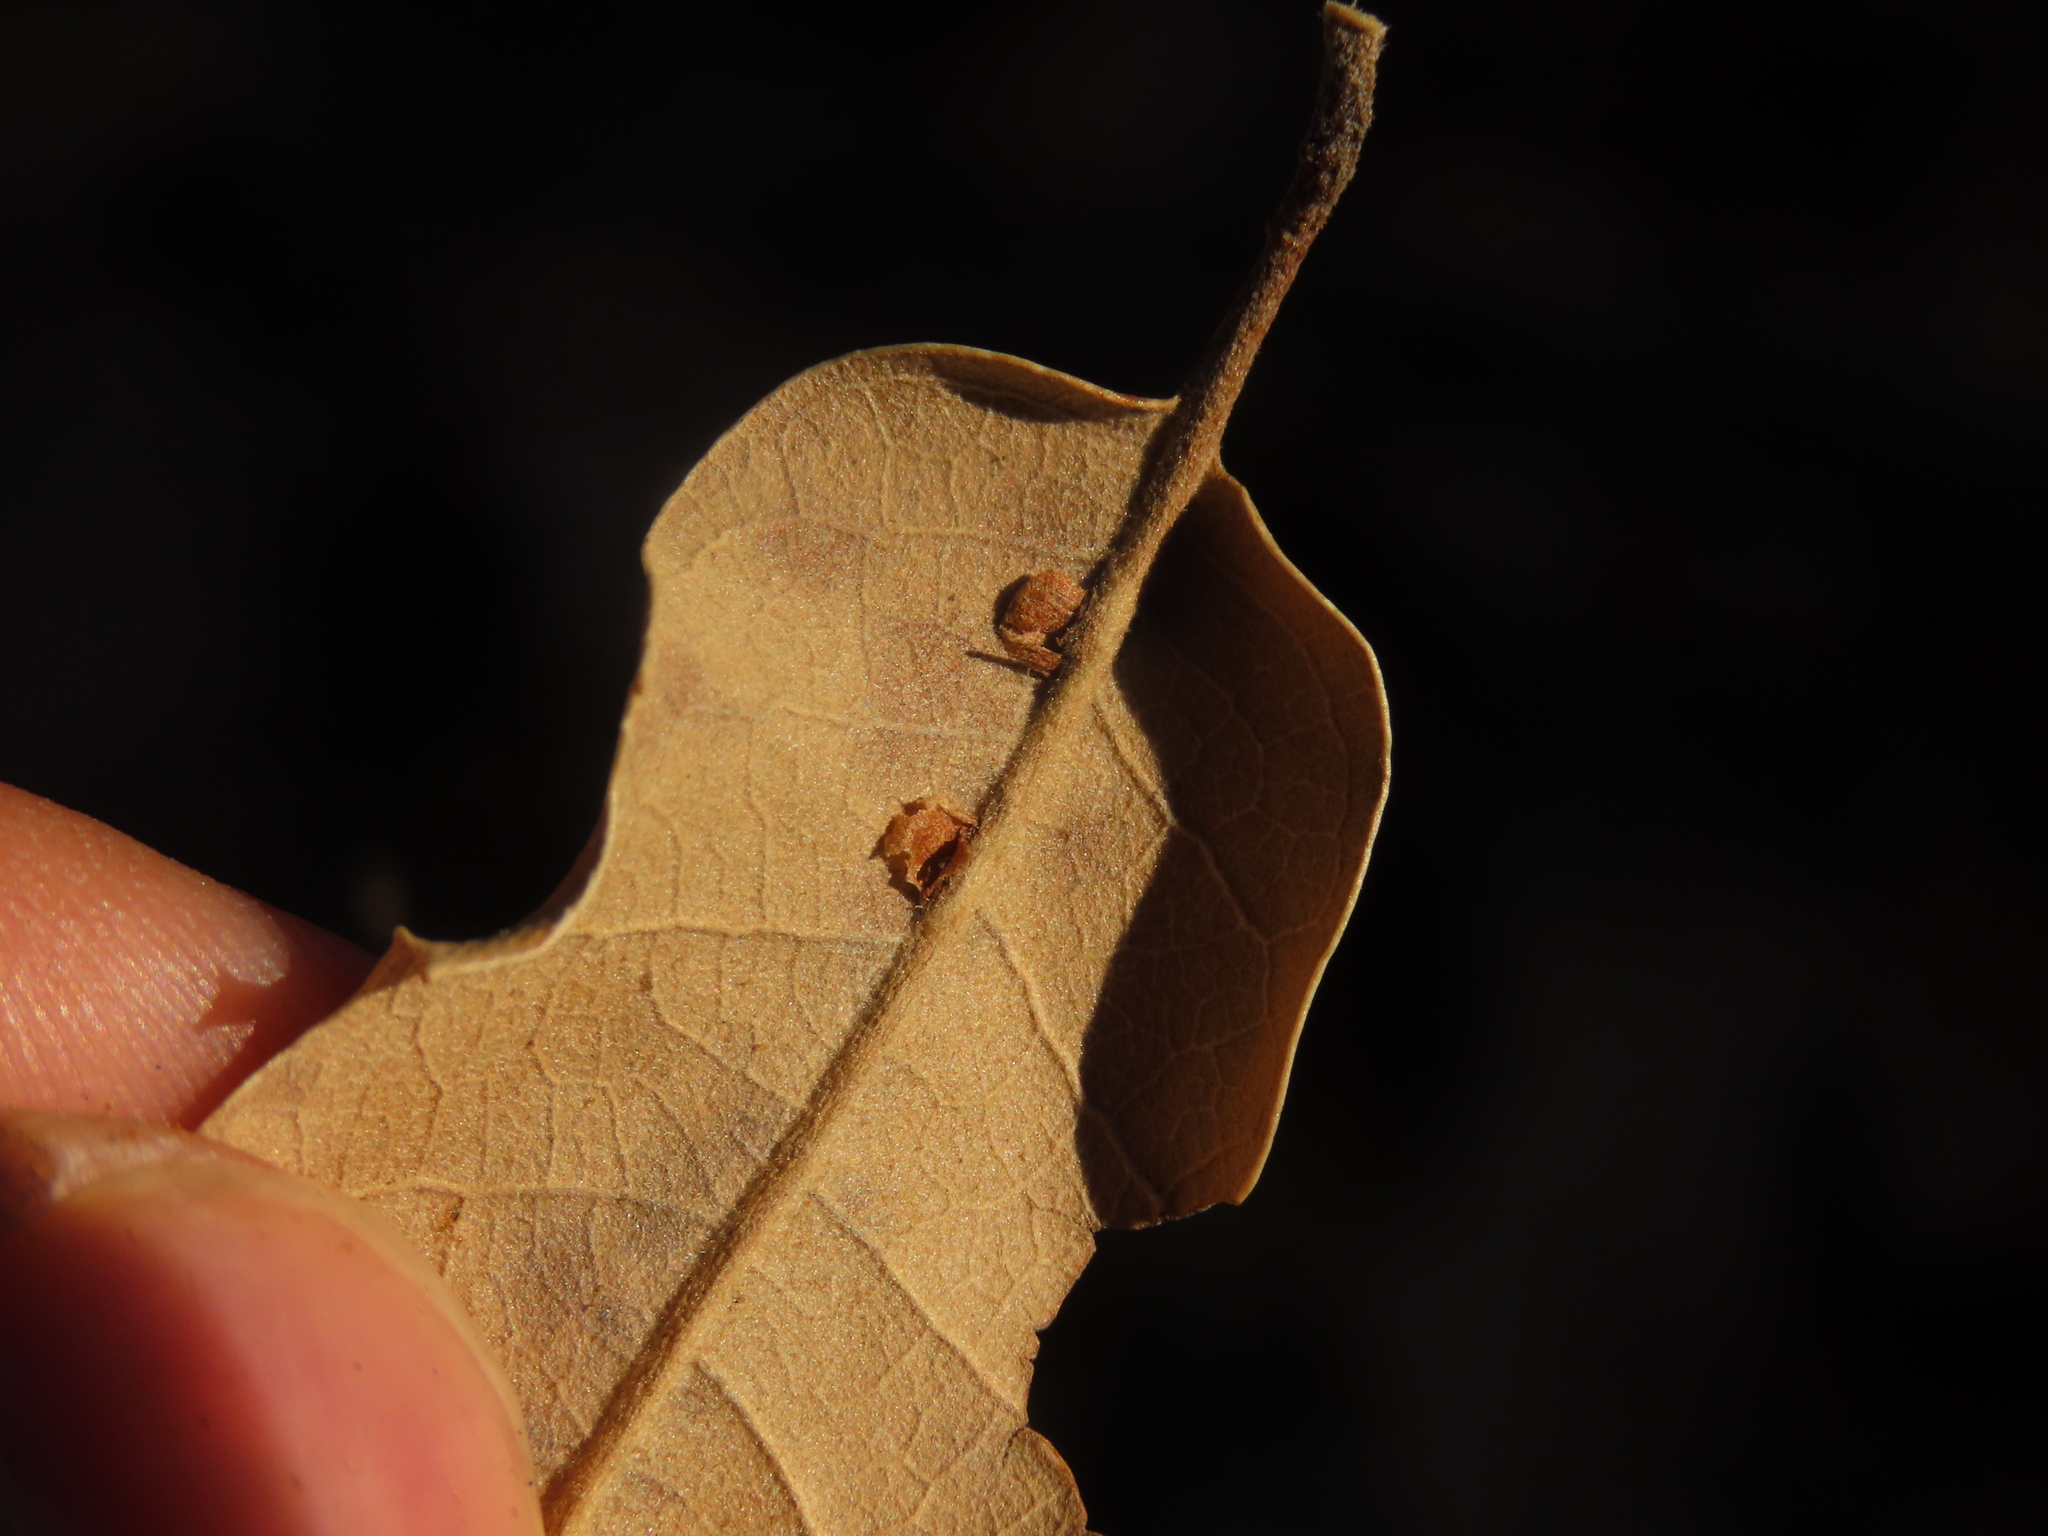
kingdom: Animalia
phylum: Arthropoda
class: Insecta
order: Hymenoptera
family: Cynipidae
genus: Neuroterus
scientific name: Neuroterus anthracinus
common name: Oyster gall
